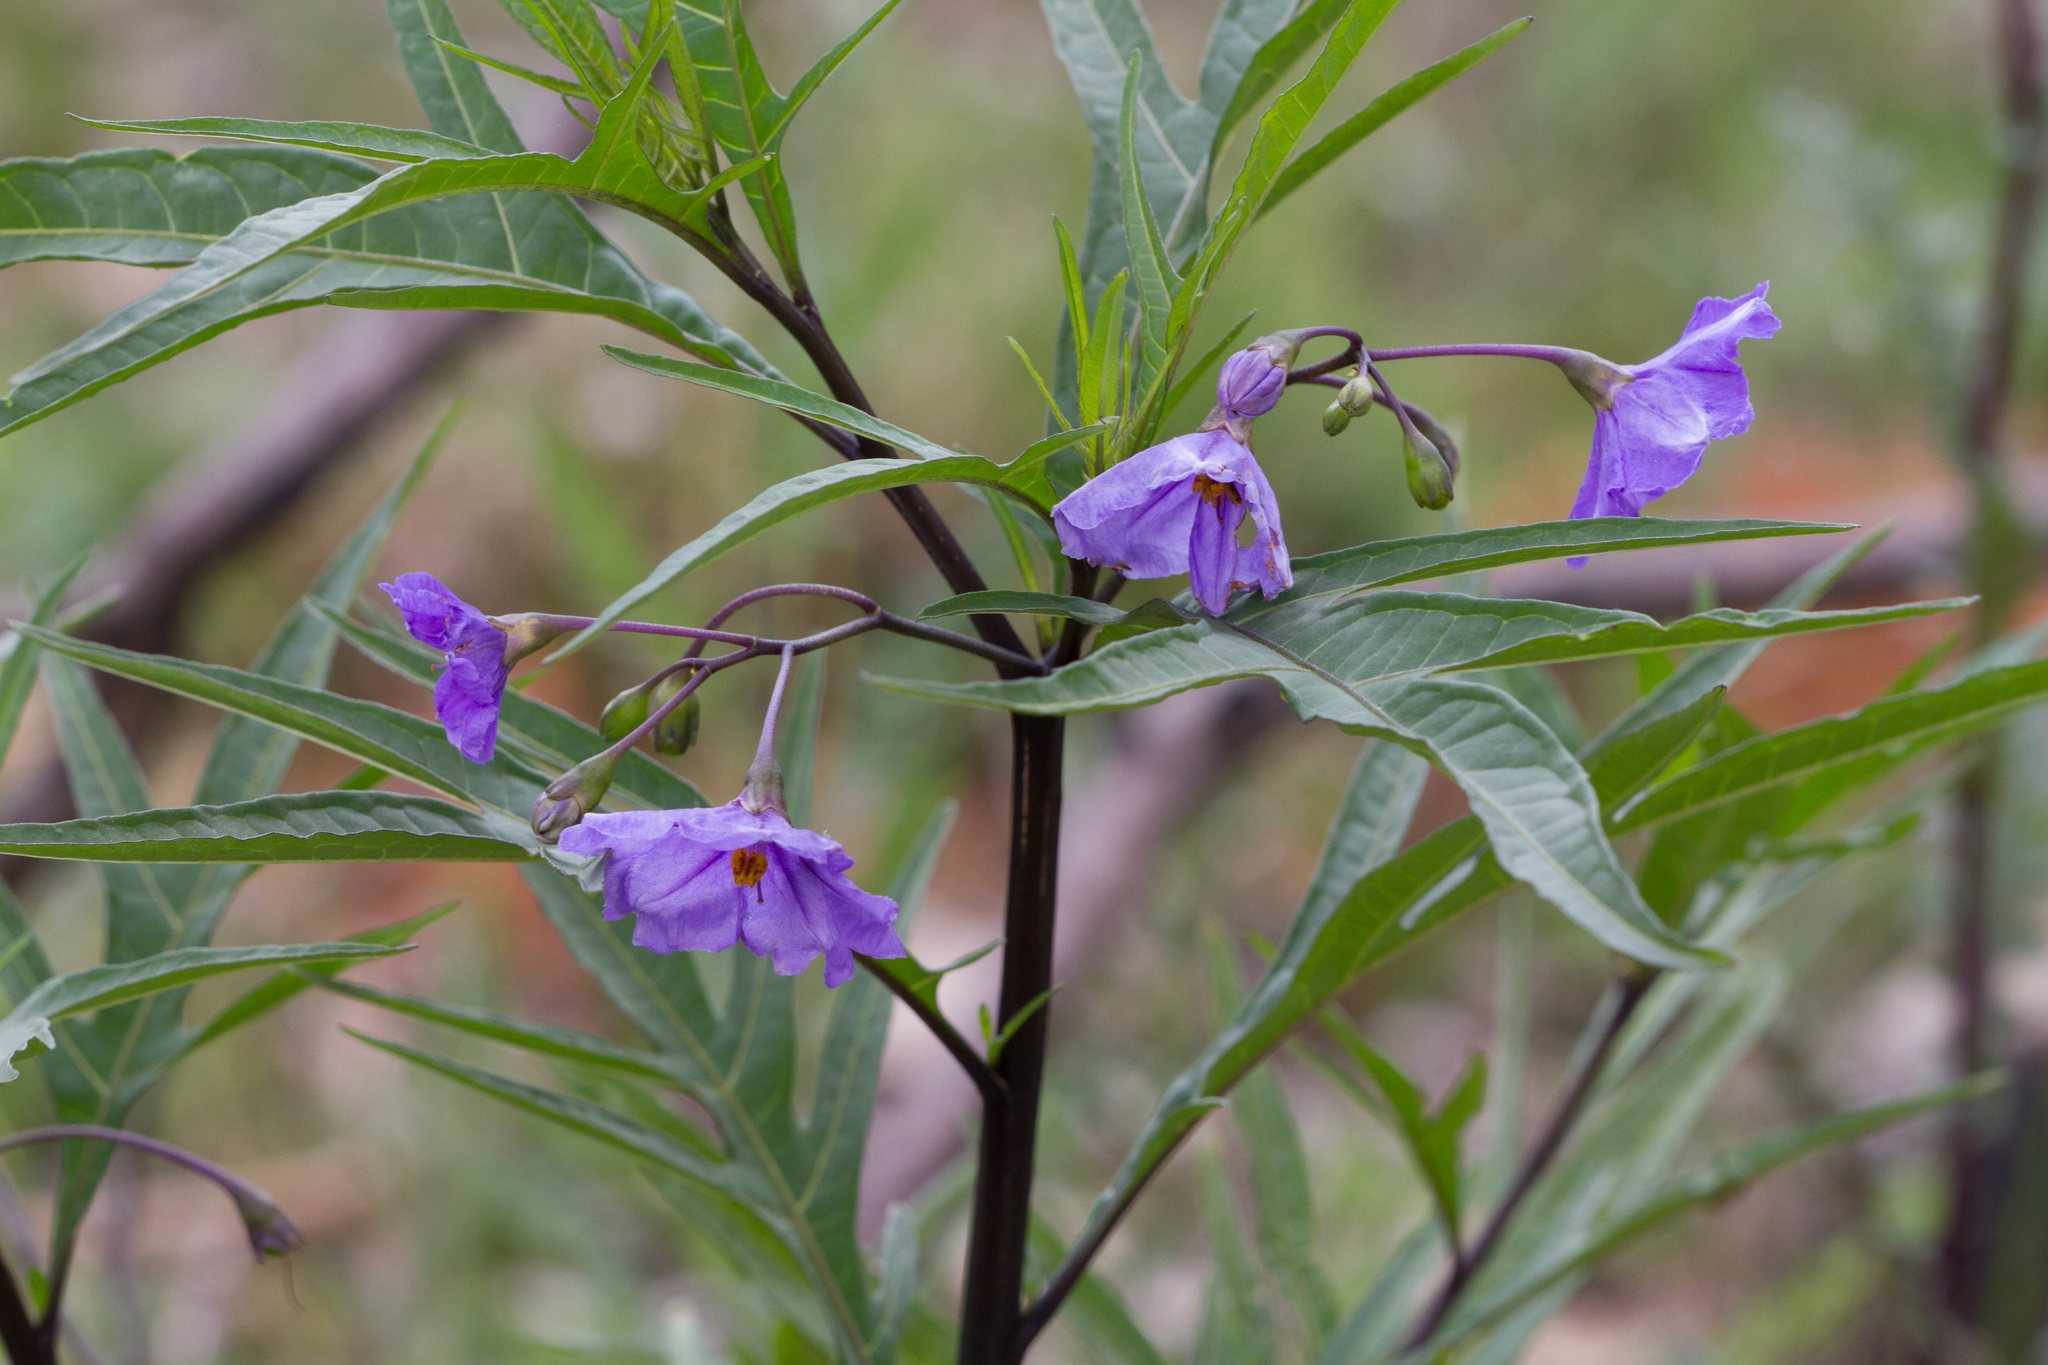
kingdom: Plantae
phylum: Tracheophyta
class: Magnoliopsida
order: Solanales
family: Solanaceae
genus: Solanum
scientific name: Solanum laciniatum
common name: Kangaroo-apple
